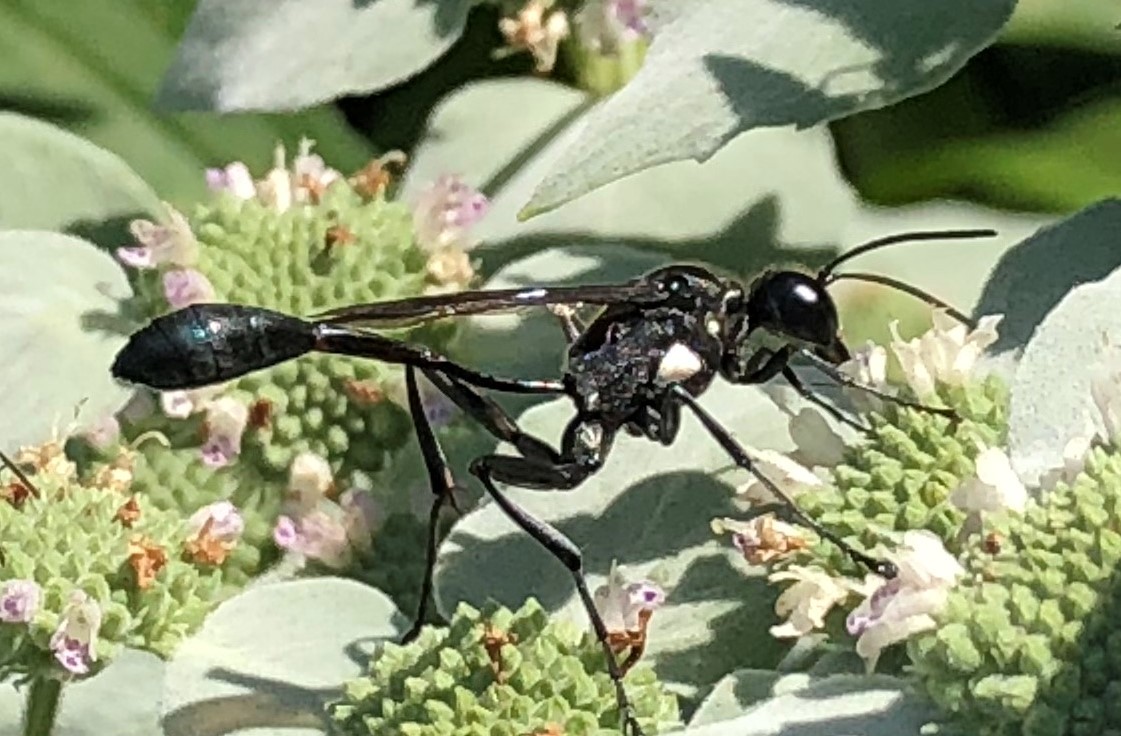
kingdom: Animalia
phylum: Arthropoda
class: Insecta
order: Hymenoptera
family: Sphecidae
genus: Eremnophila
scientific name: Eremnophila aureonotata
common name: Gold-marked thread-waisted wasp
